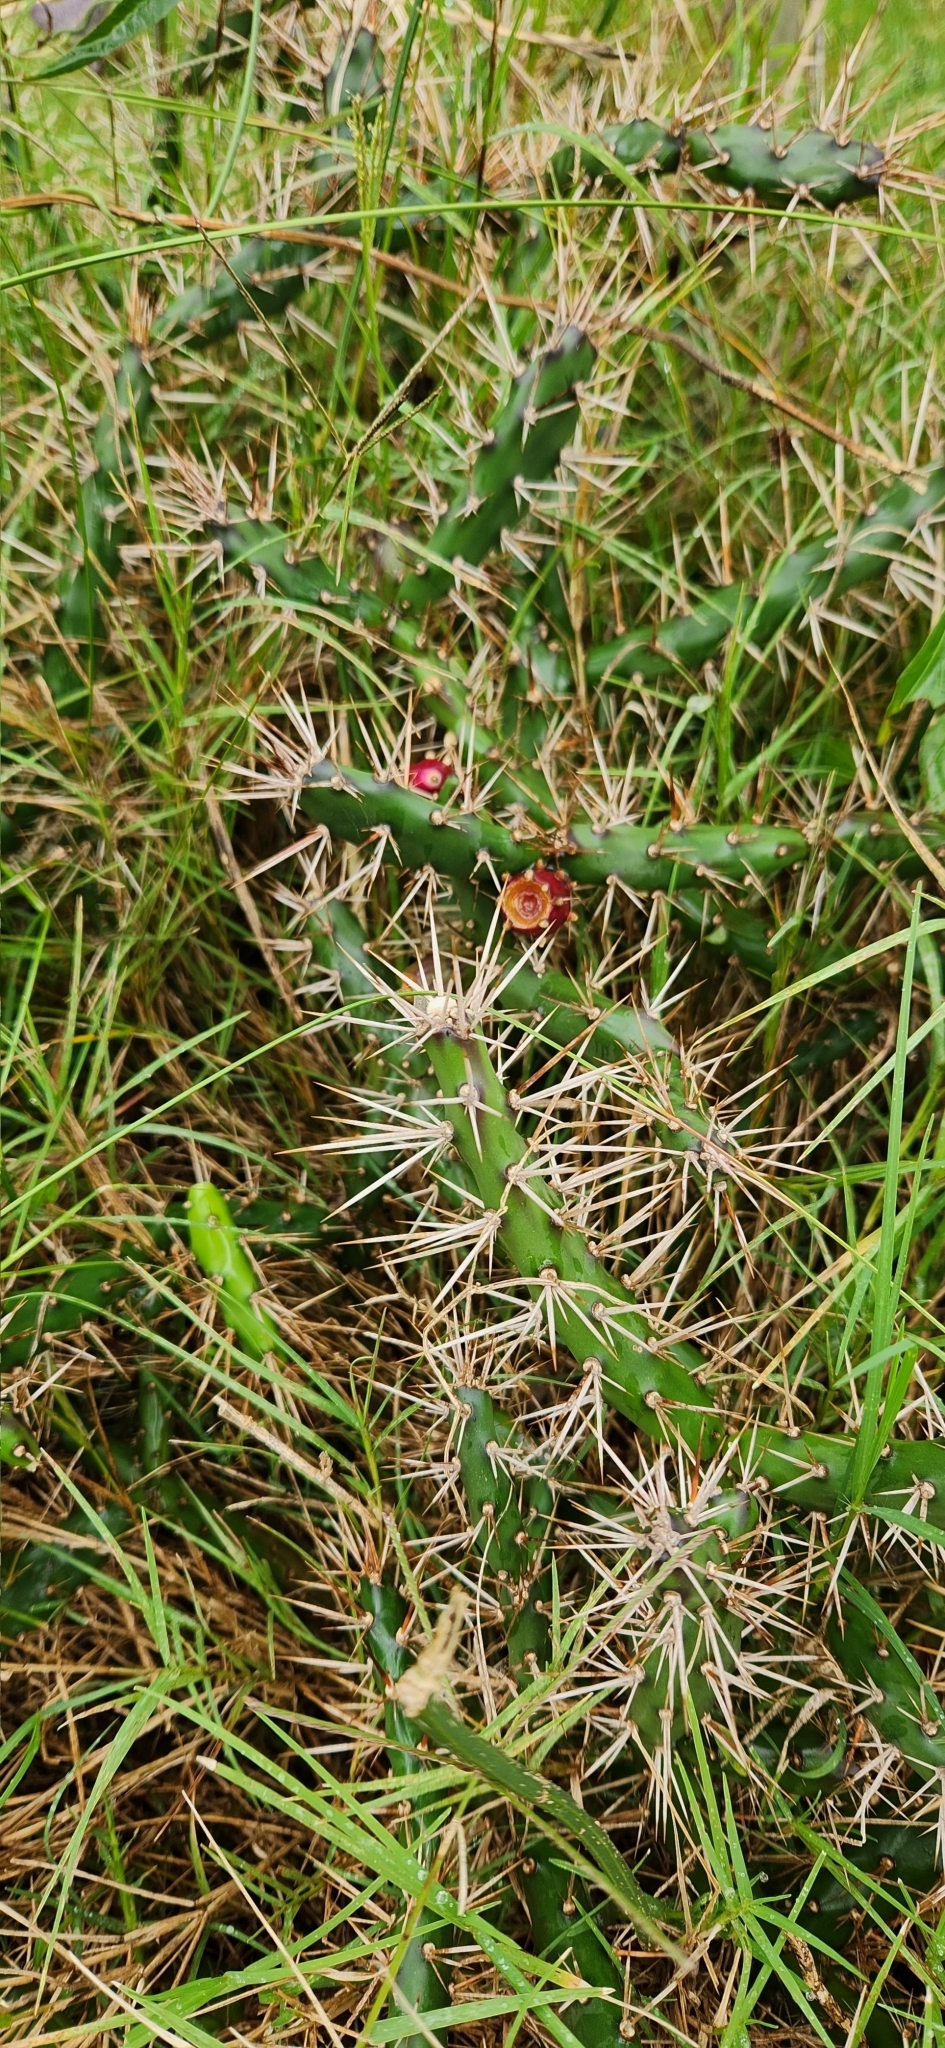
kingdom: Plantae
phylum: Tracheophyta
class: Magnoliopsida
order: Caryophyllales
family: Cactaceae
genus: Opuntia
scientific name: Opuntia aurantiaca
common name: Jointed pricklypear
